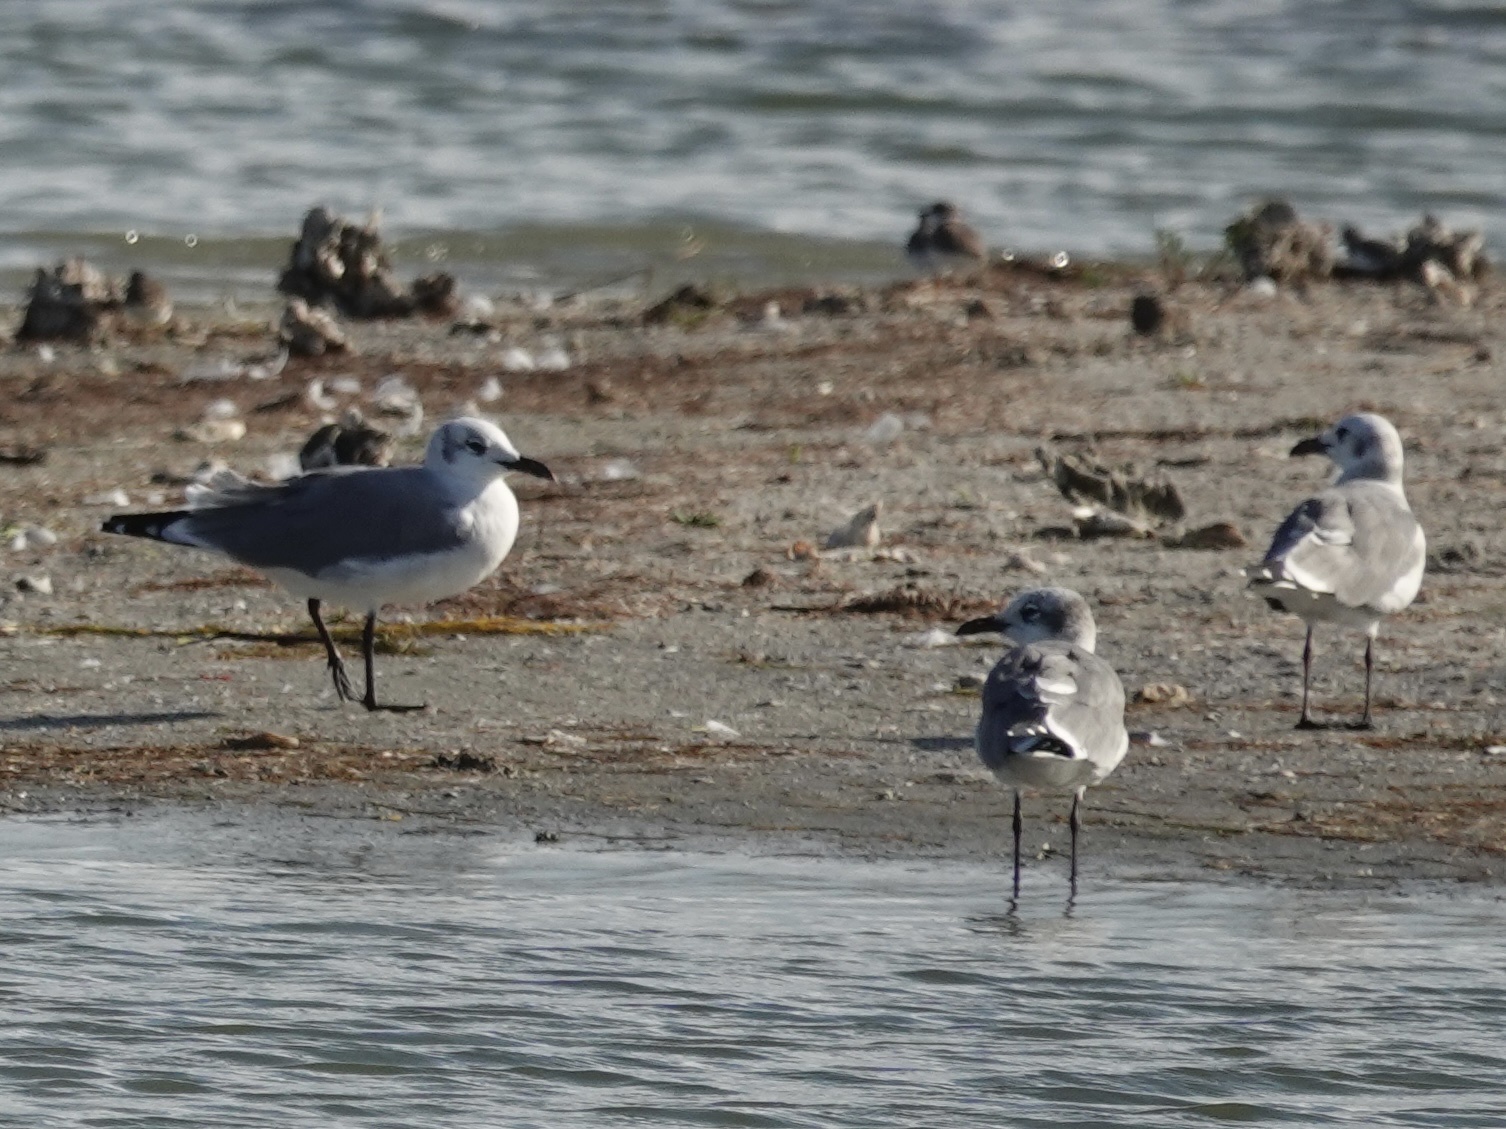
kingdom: Animalia
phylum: Chordata
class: Aves
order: Charadriiformes
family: Laridae
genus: Leucophaeus
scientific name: Leucophaeus atricilla
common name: Laughing gull
